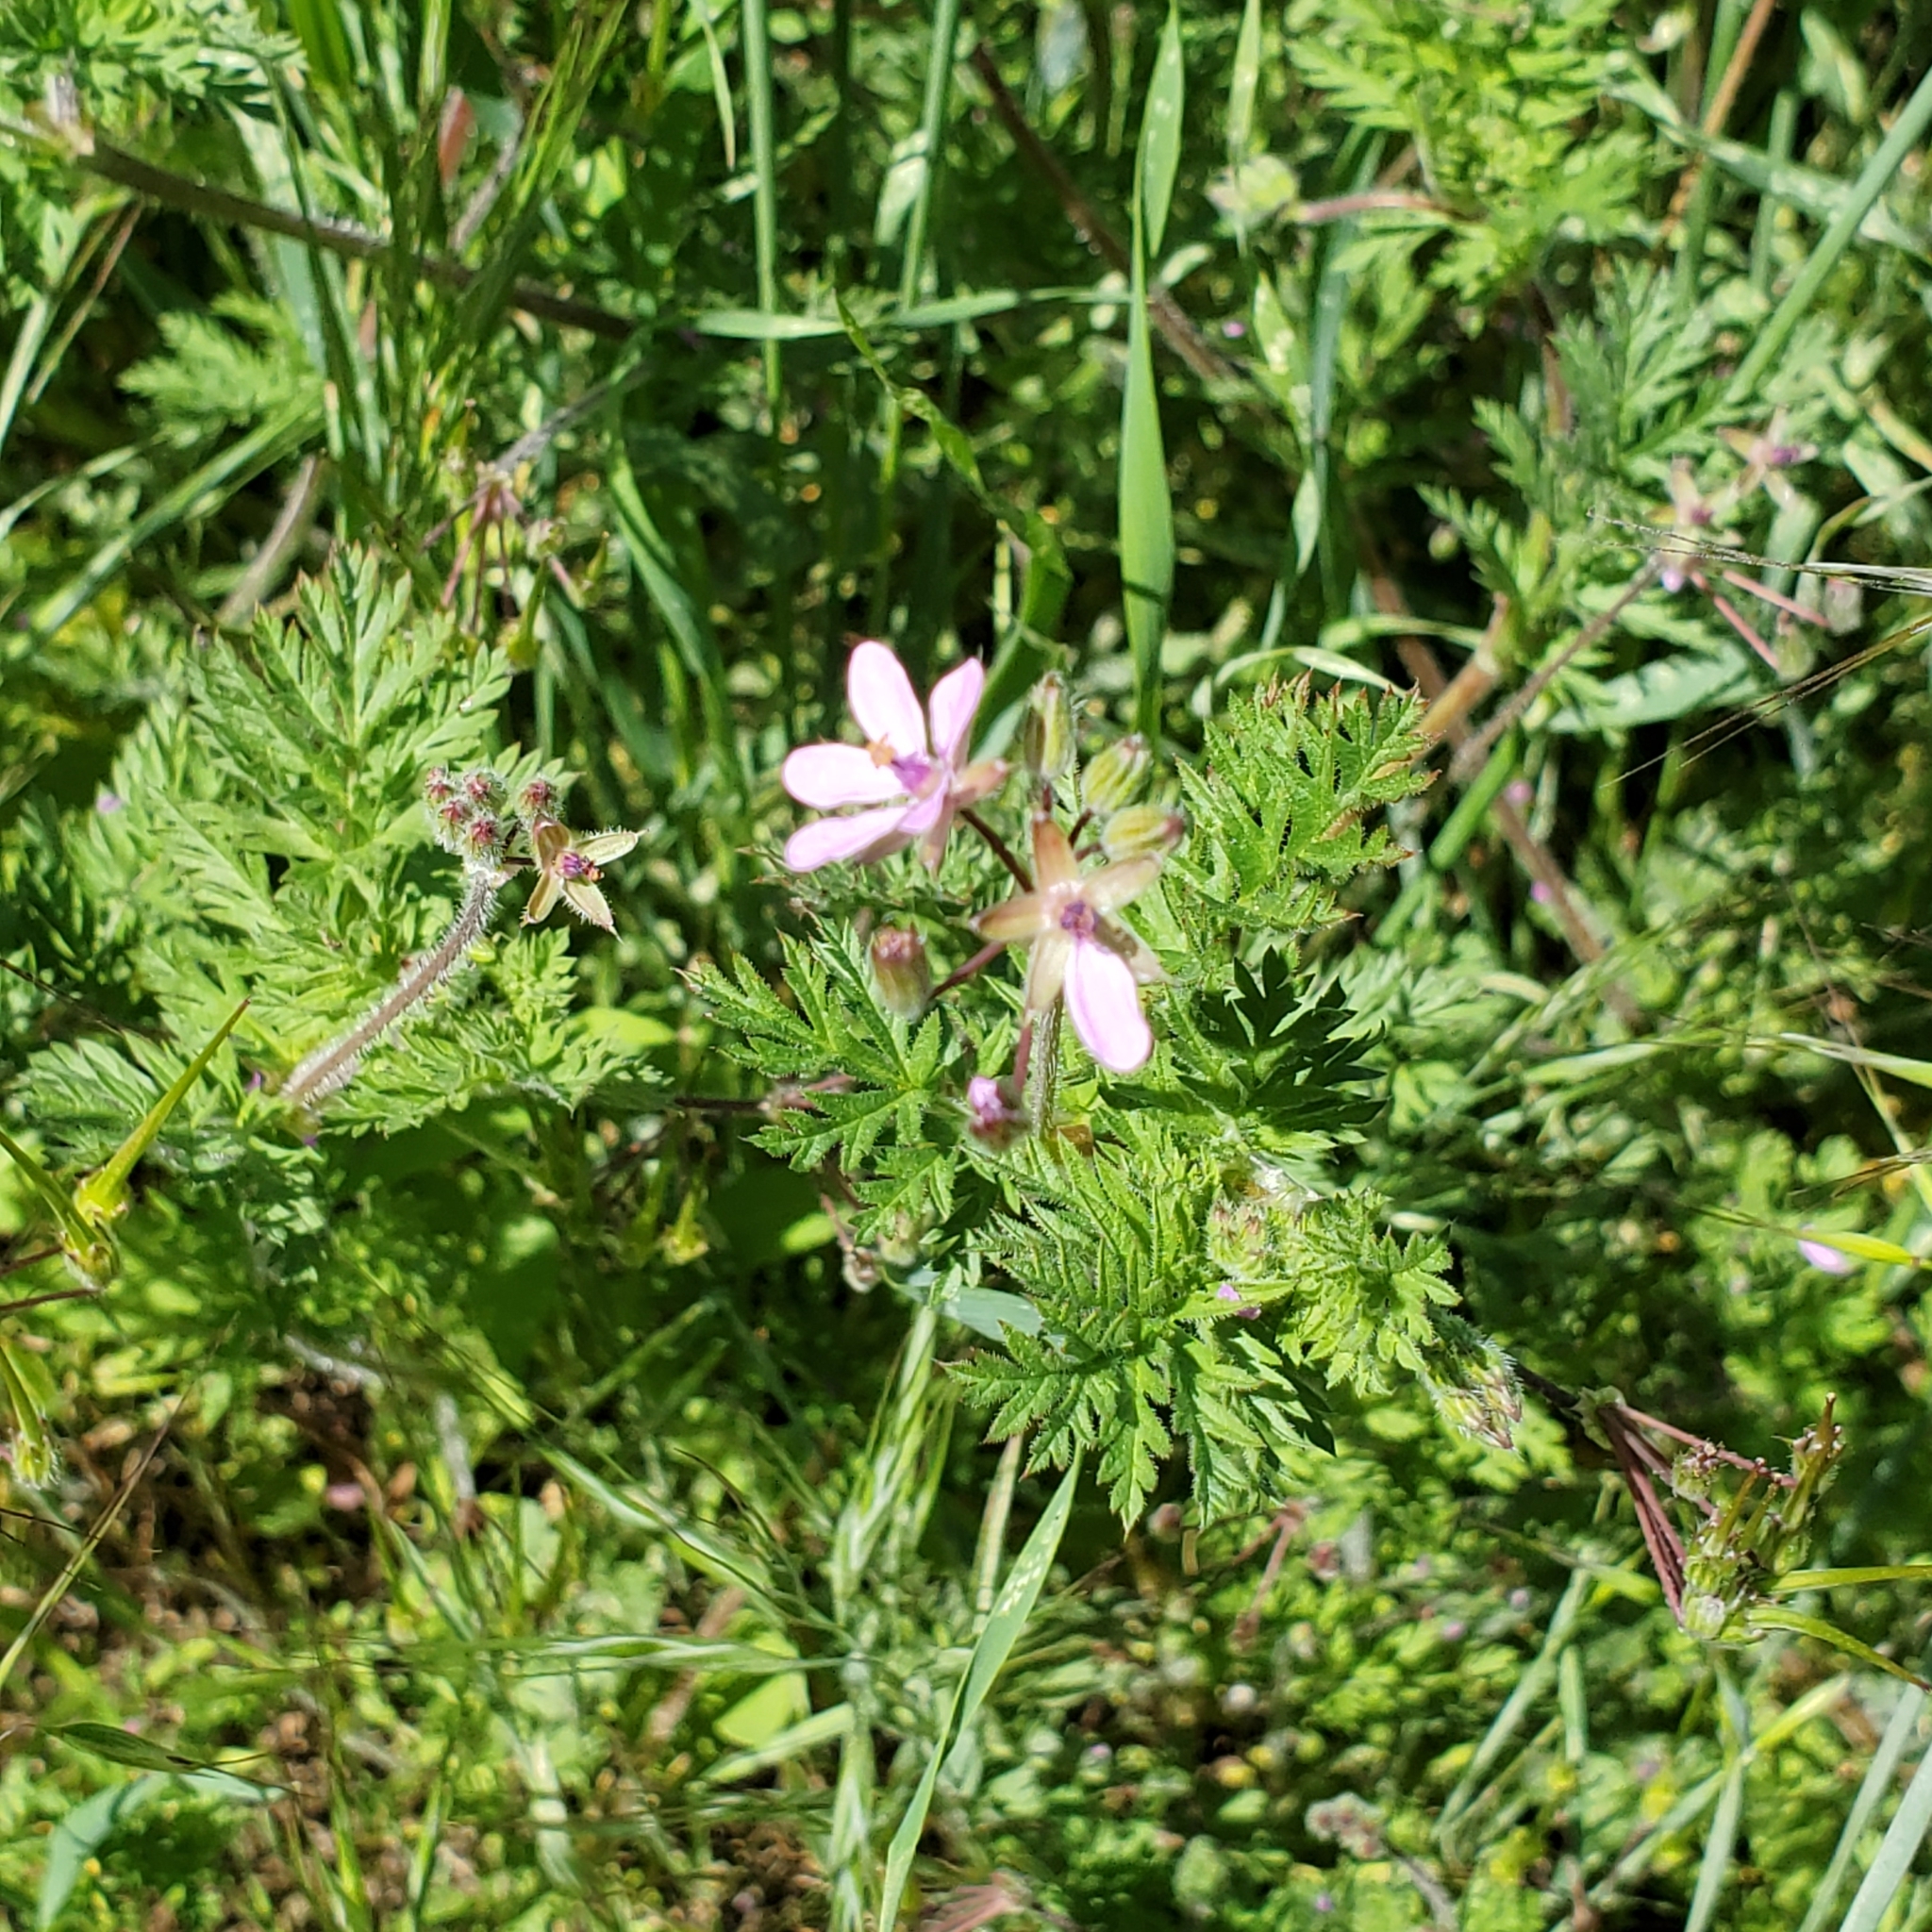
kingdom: Plantae
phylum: Tracheophyta
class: Magnoliopsida
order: Geraniales
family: Geraniaceae
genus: Erodium
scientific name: Erodium cicutarium
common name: Common stork's-bill
